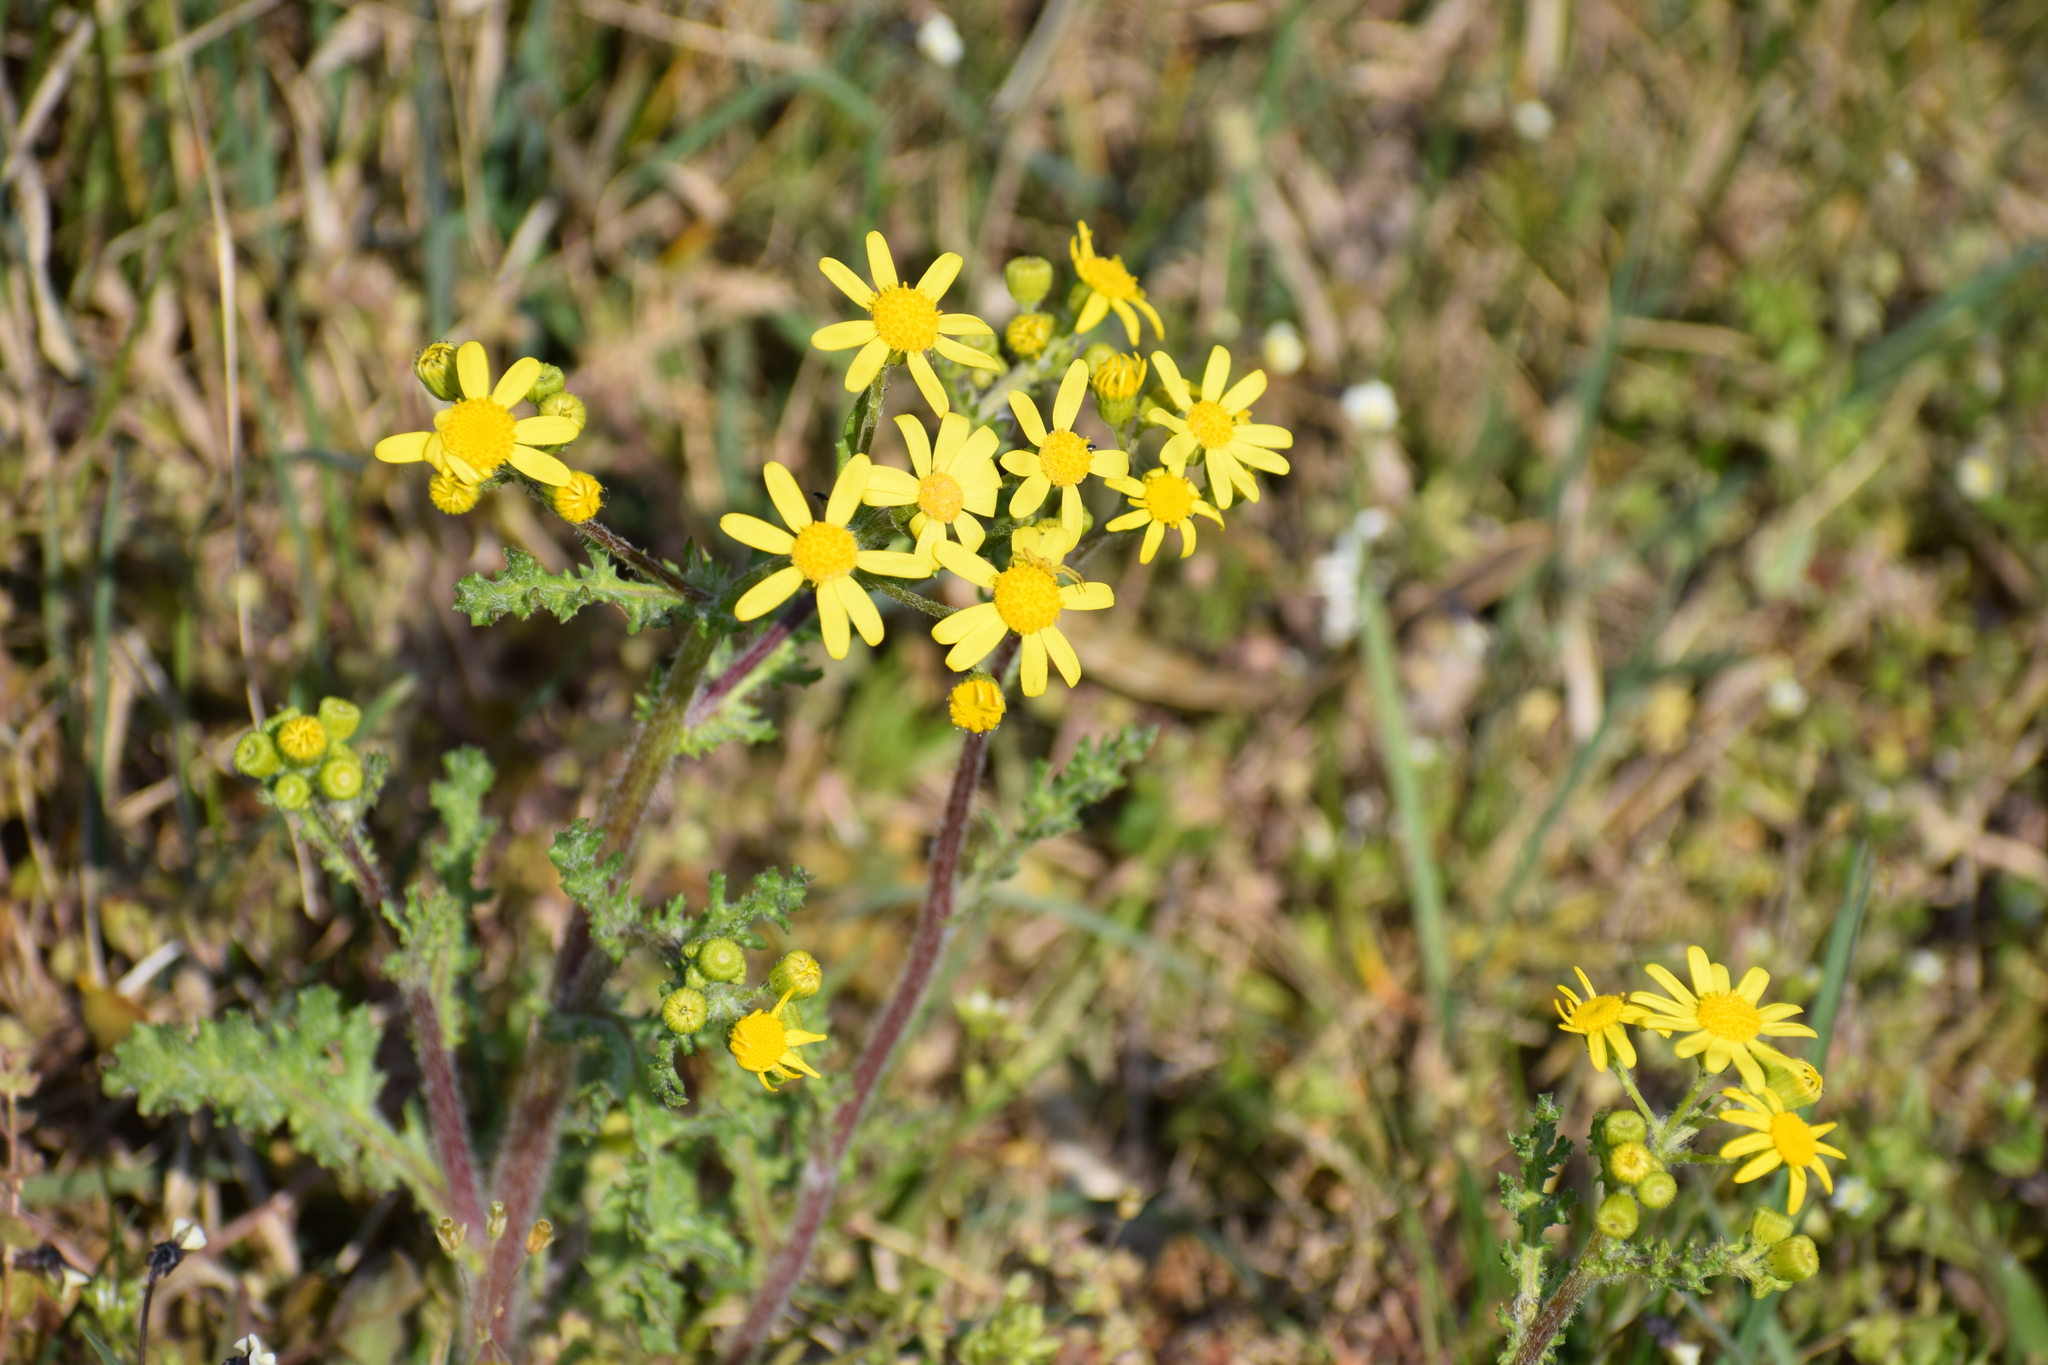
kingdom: Plantae
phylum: Tracheophyta
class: Magnoliopsida
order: Asterales
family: Asteraceae
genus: Senecio
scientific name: Senecio vernalis
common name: Eastern groundsel
